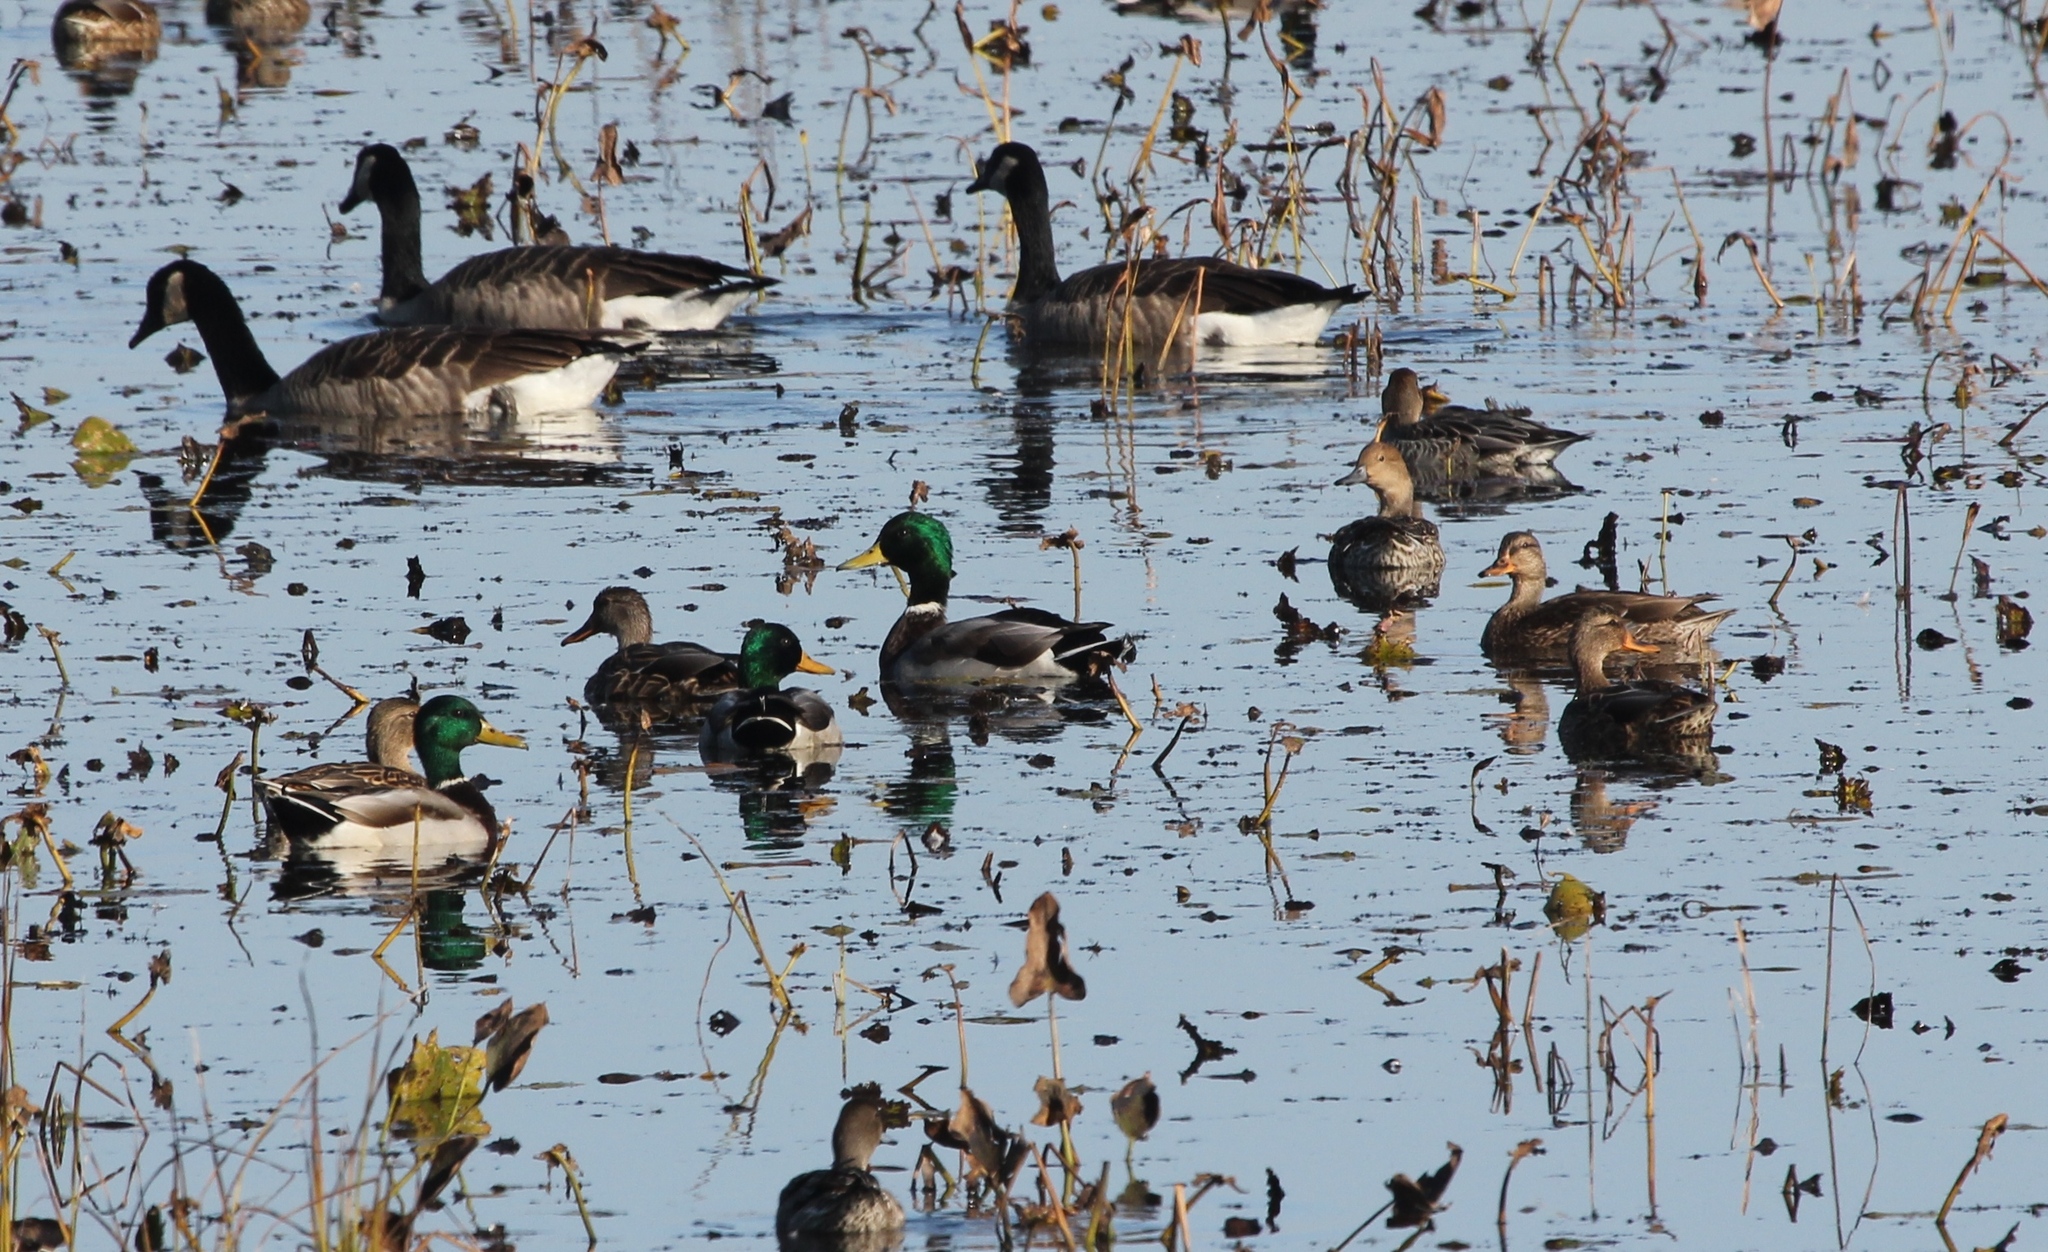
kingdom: Animalia
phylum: Chordata
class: Aves
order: Anseriformes
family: Anatidae
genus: Anas
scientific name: Anas platyrhynchos
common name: Mallard
